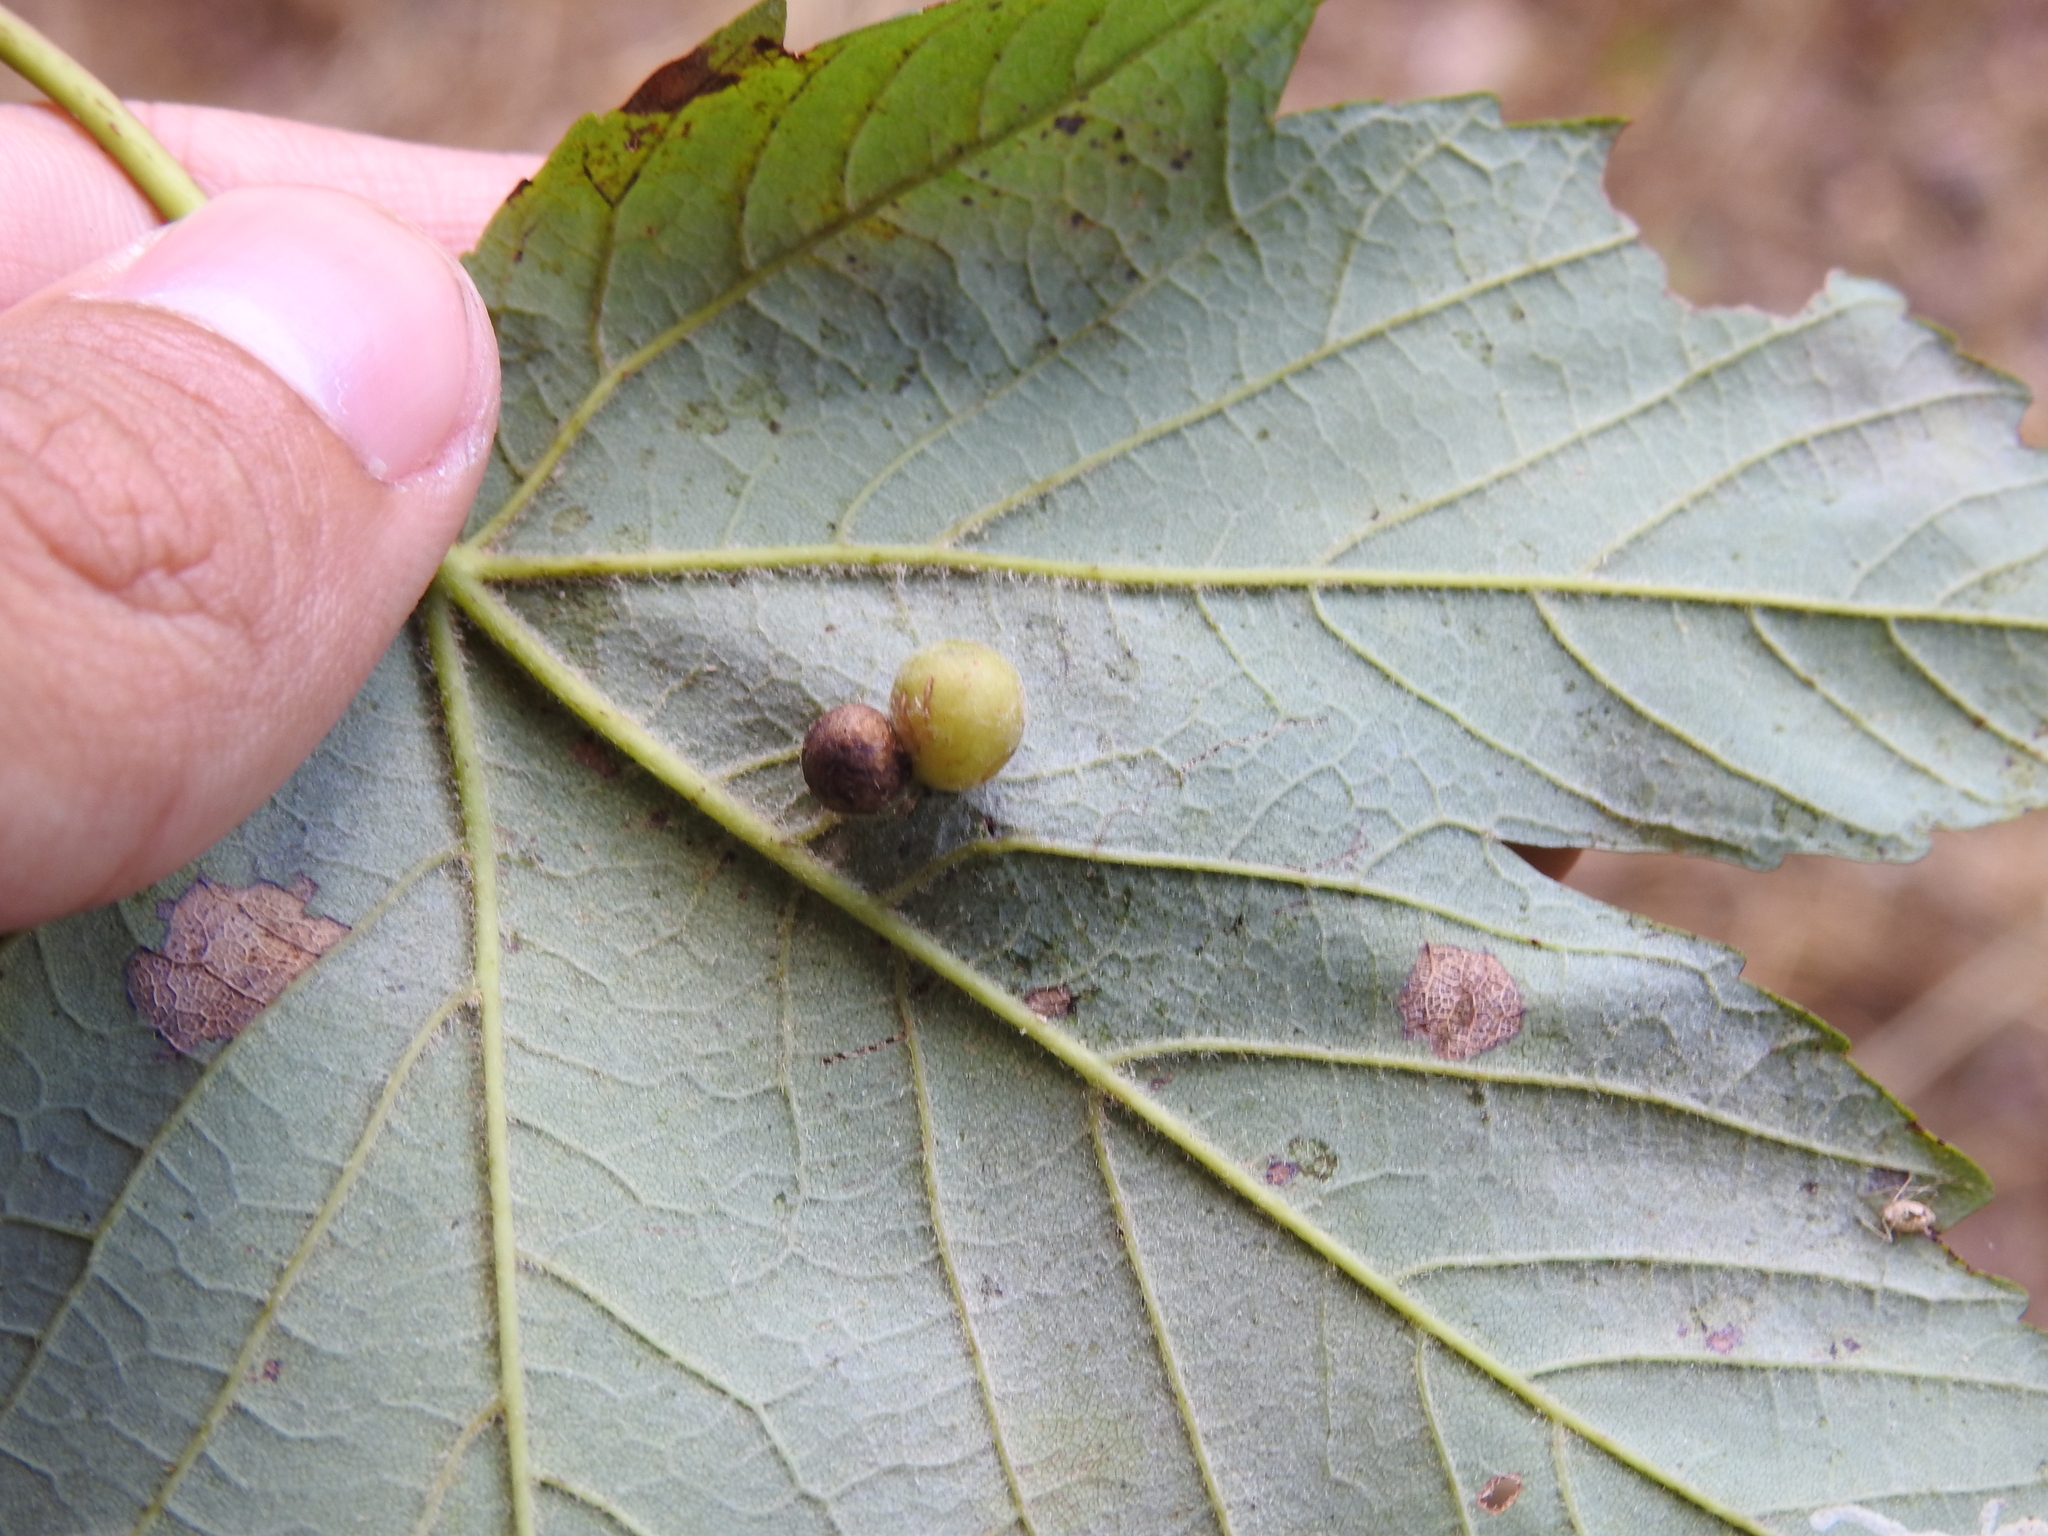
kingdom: Animalia
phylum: Arthropoda
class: Insecta
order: Hymenoptera
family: Cynipidae
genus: Pediaspis
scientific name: Pediaspis aceris
